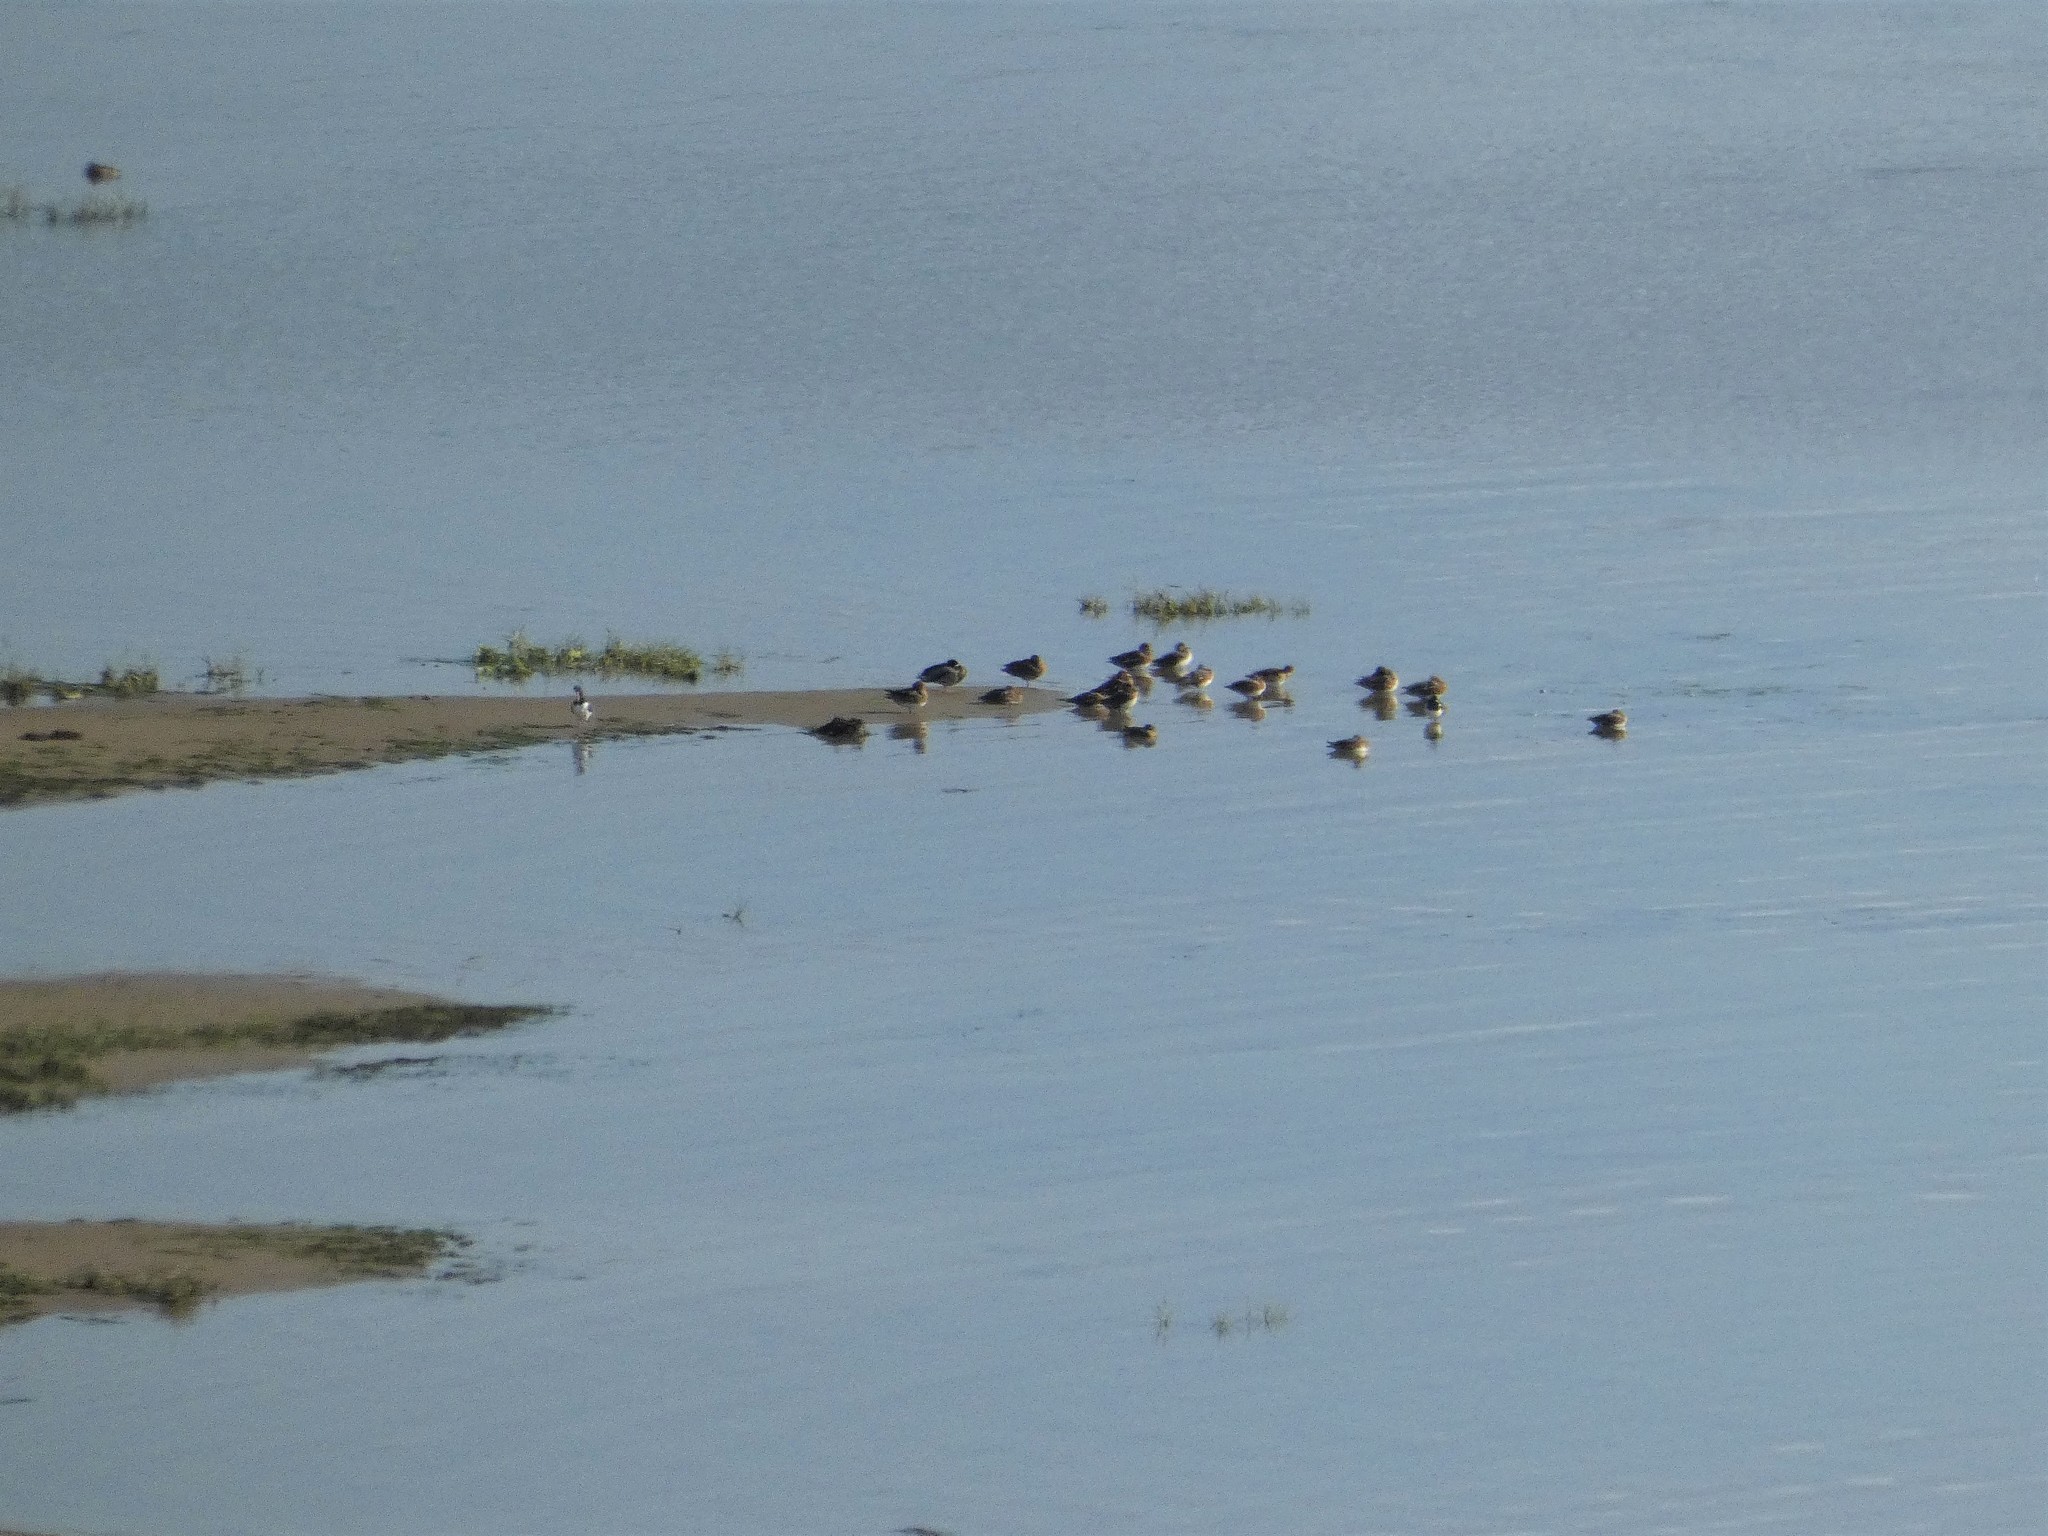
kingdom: Animalia
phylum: Chordata
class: Aves
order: Anseriformes
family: Anatidae
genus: Mareca
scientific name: Mareca penelope
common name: Eurasian wigeon
